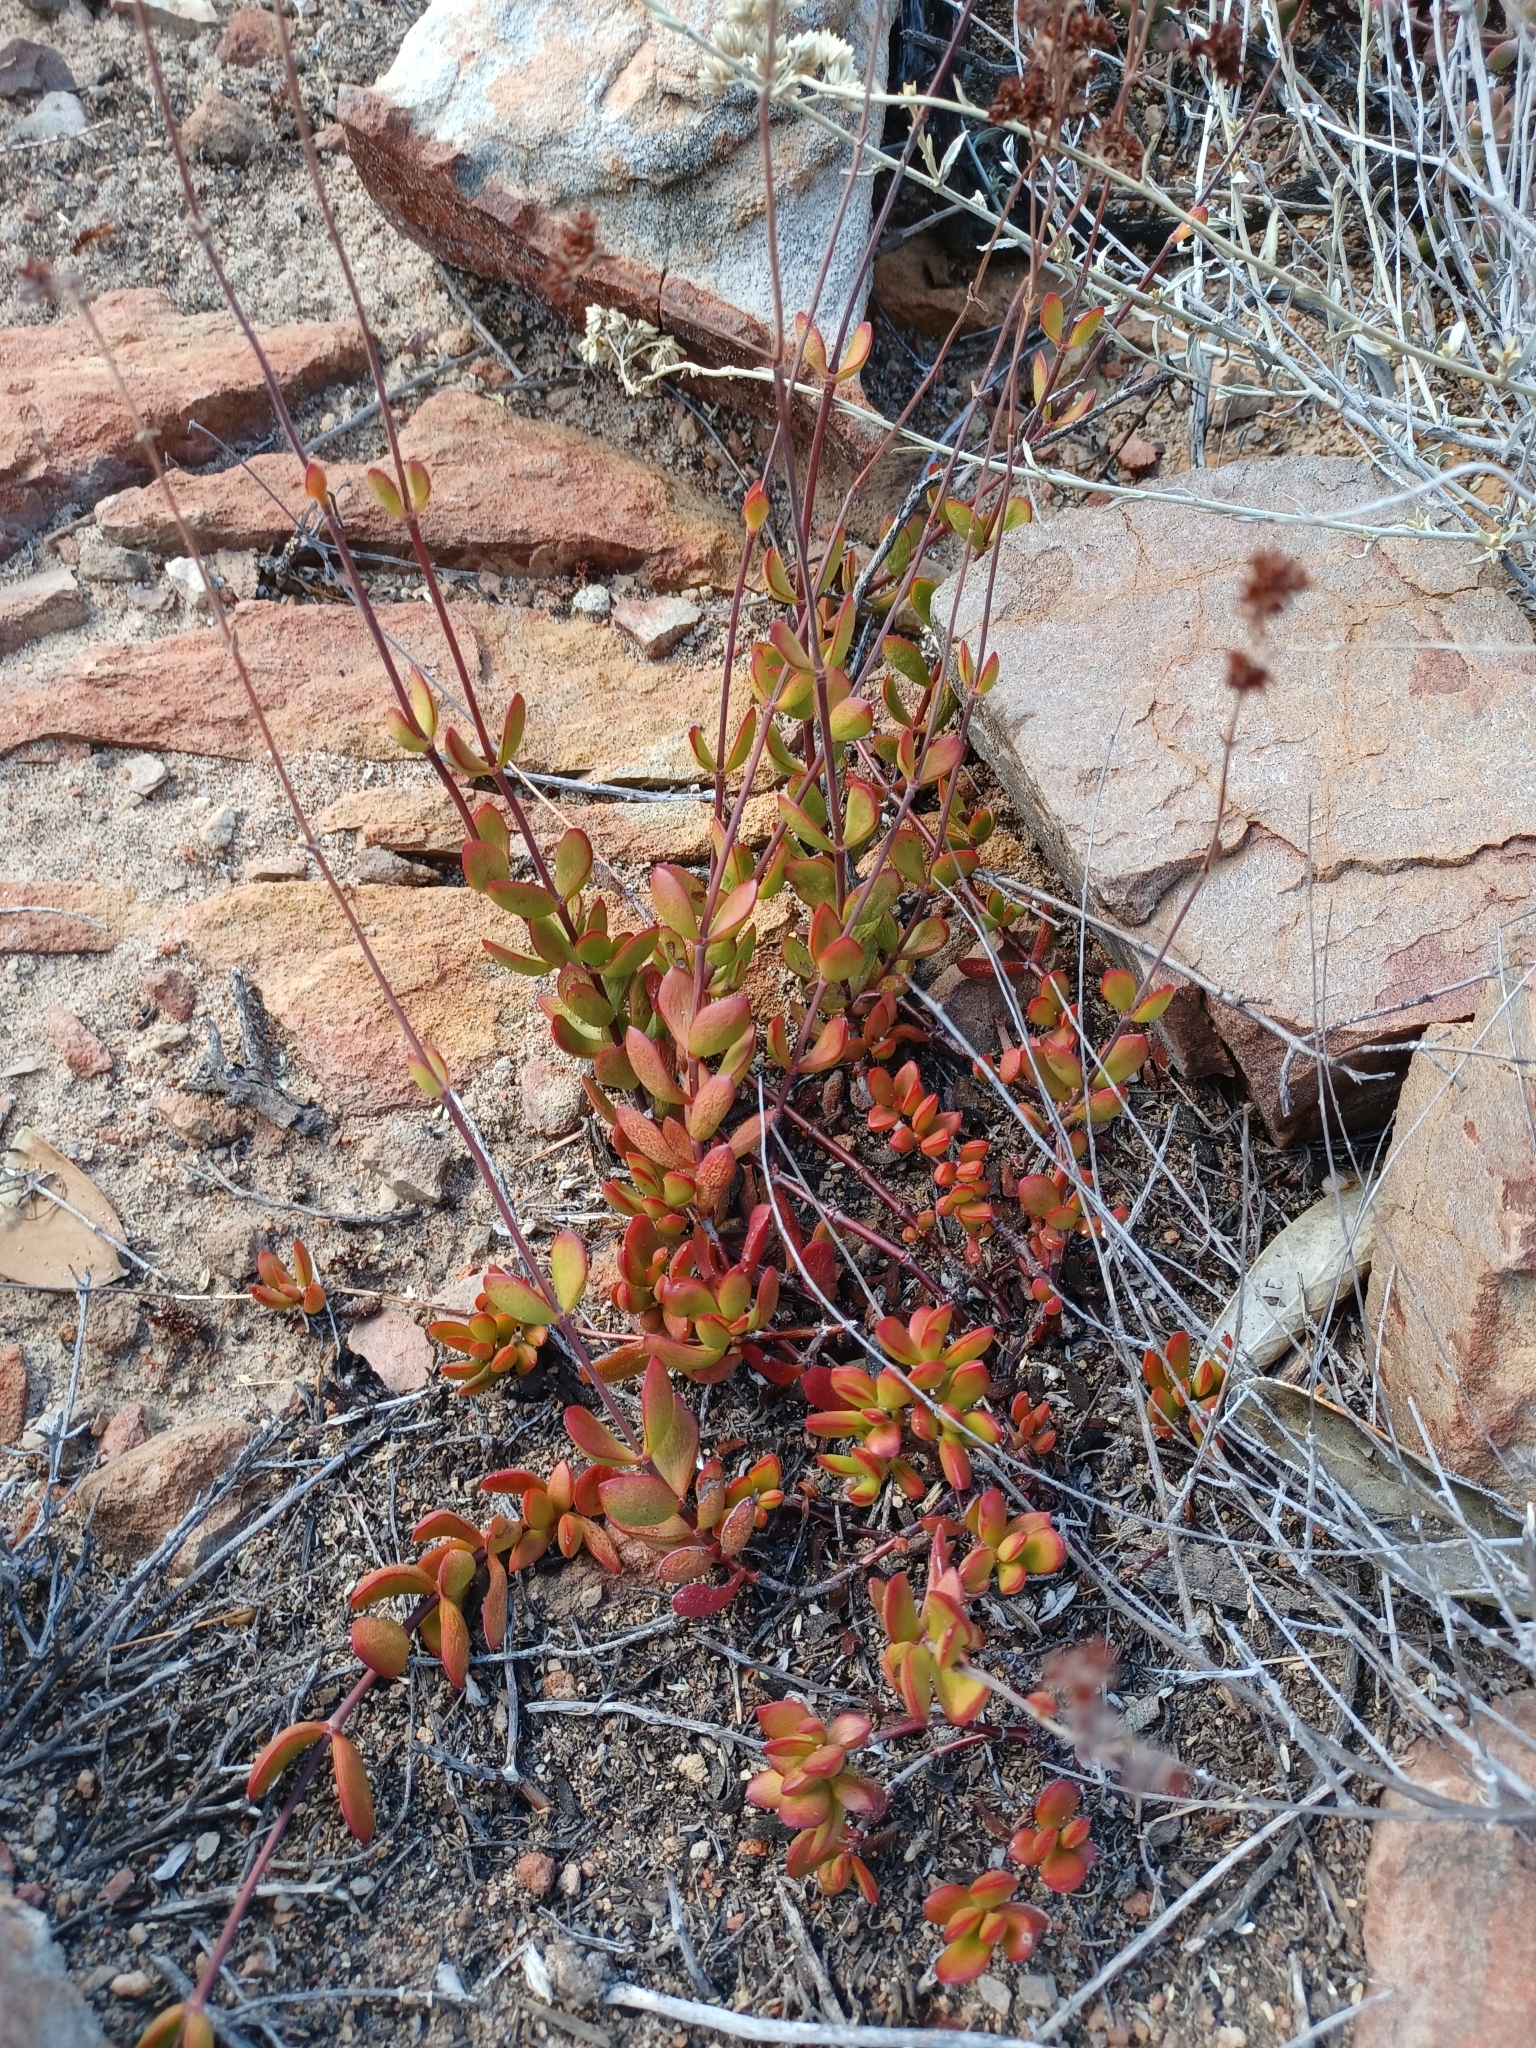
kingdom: Plantae
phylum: Tracheophyta
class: Magnoliopsida
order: Saxifragales
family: Crassulaceae
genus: Crassula
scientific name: Crassula atropurpurea
